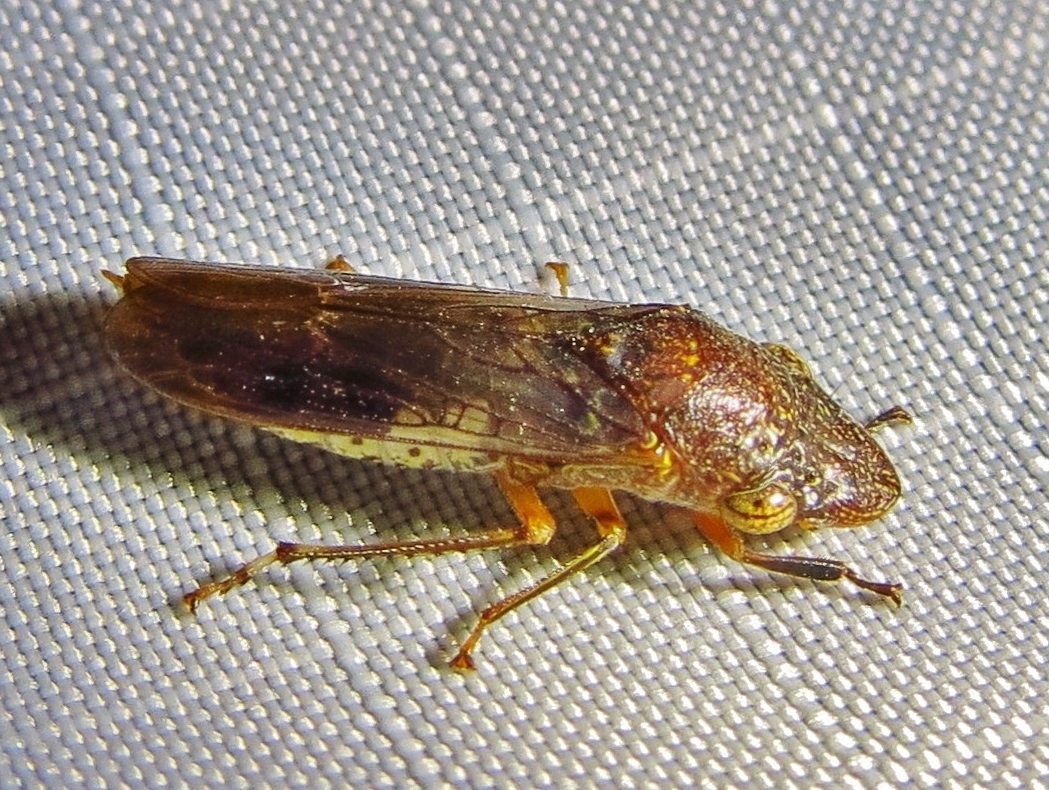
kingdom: Animalia
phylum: Arthropoda
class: Insecta
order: Hemiptera
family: Cicadellidae
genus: Homalodisca
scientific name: Homalodisca vitripennis
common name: Glassy-winged sharpshooter
